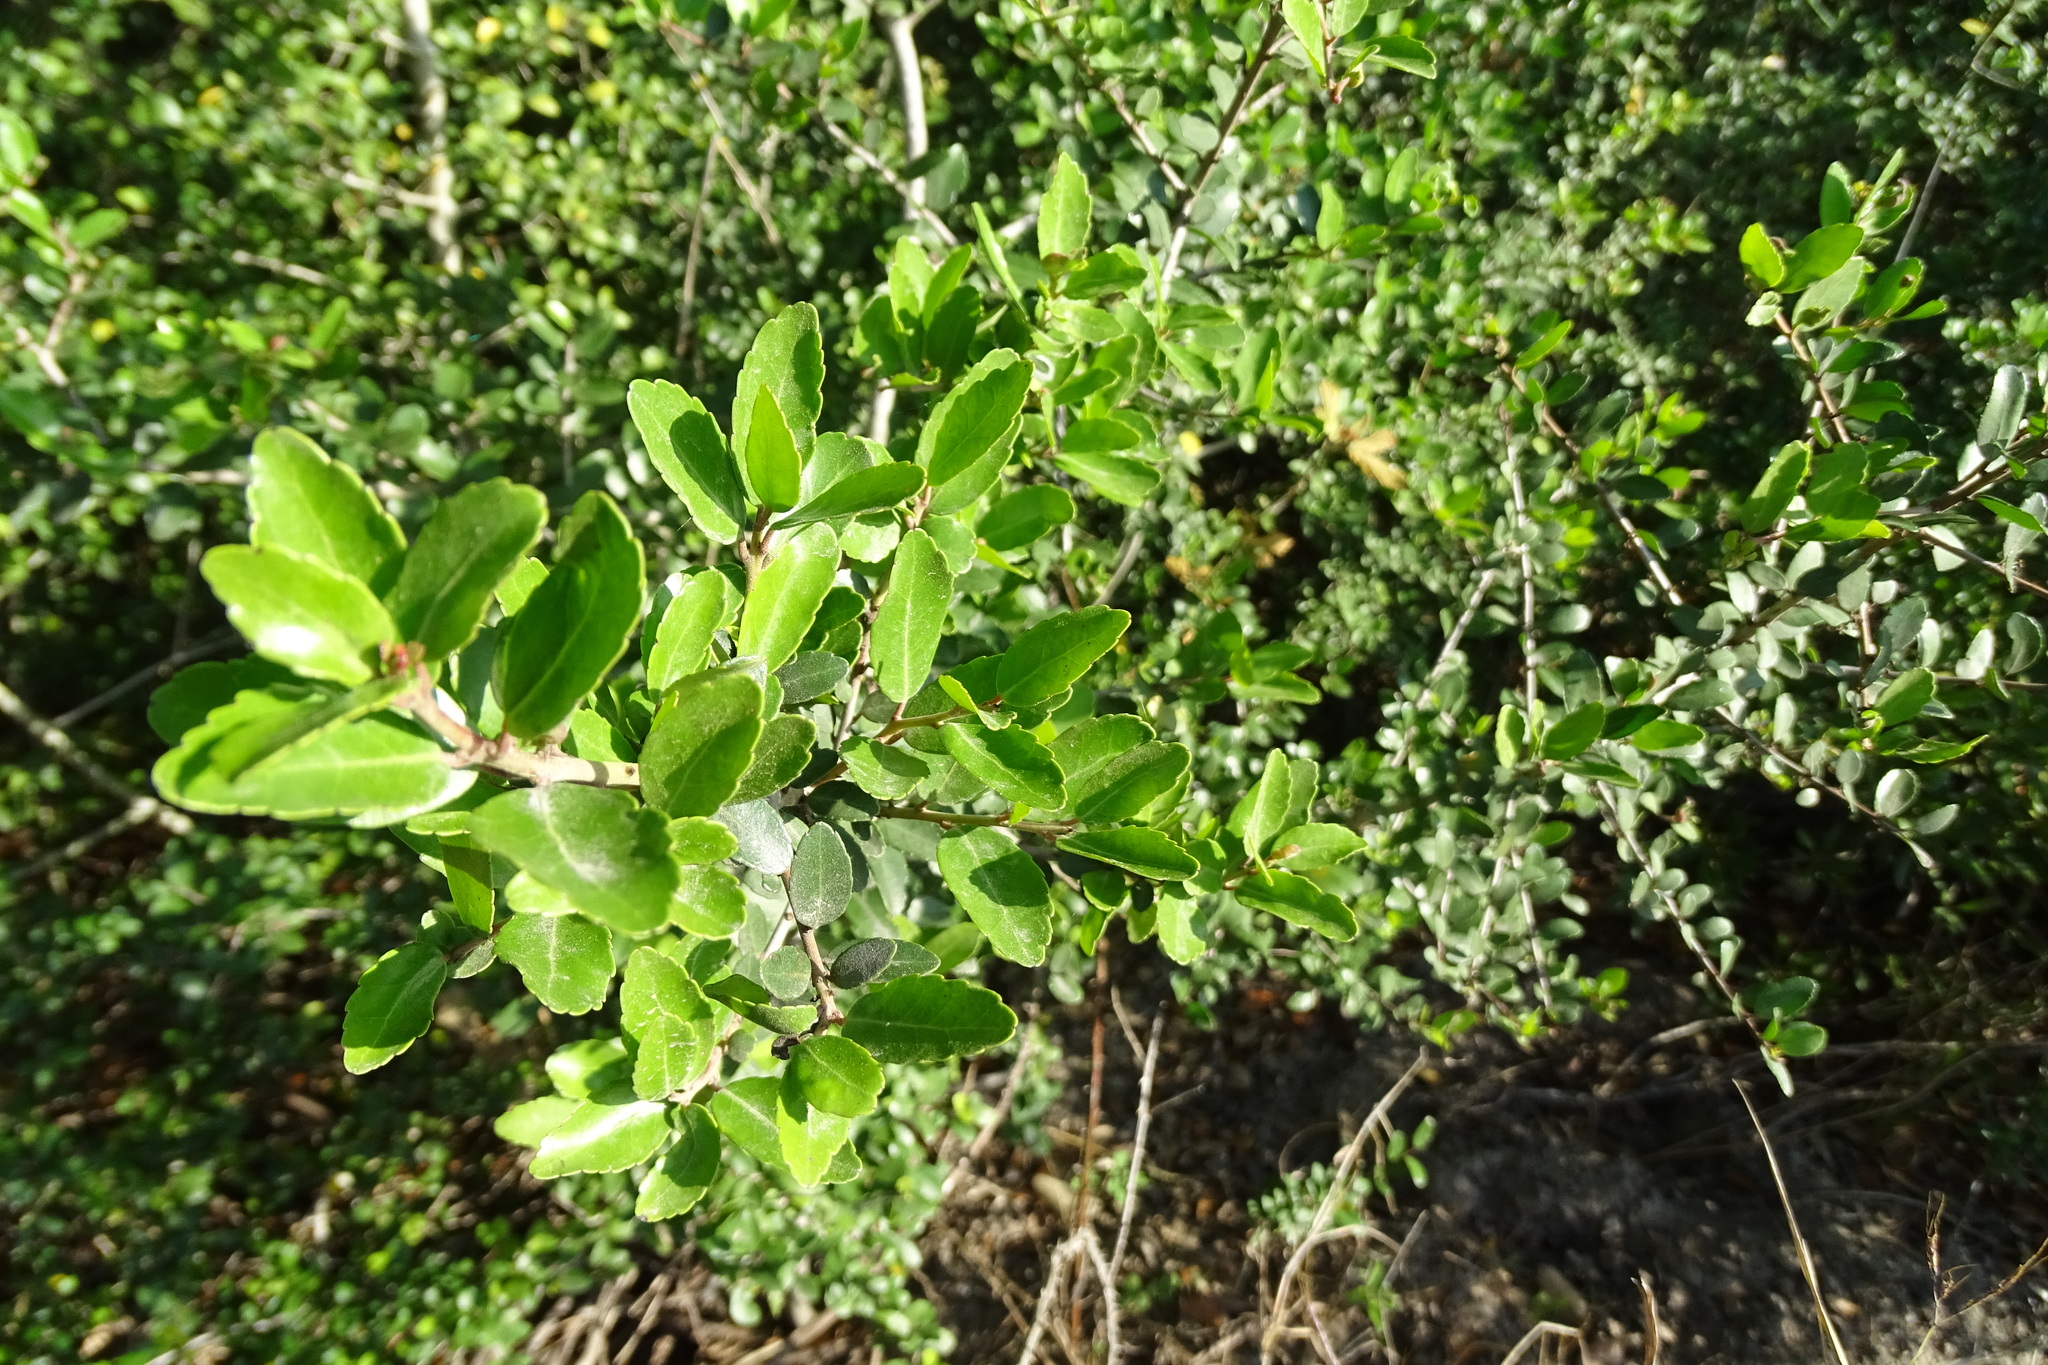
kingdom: Plantae
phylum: Tracheophyta
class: Magnoliopsida
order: Aquifoliales
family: Aquifoliaceae
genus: Ilex
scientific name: Ilex vomitoria
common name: Yaupon holly
